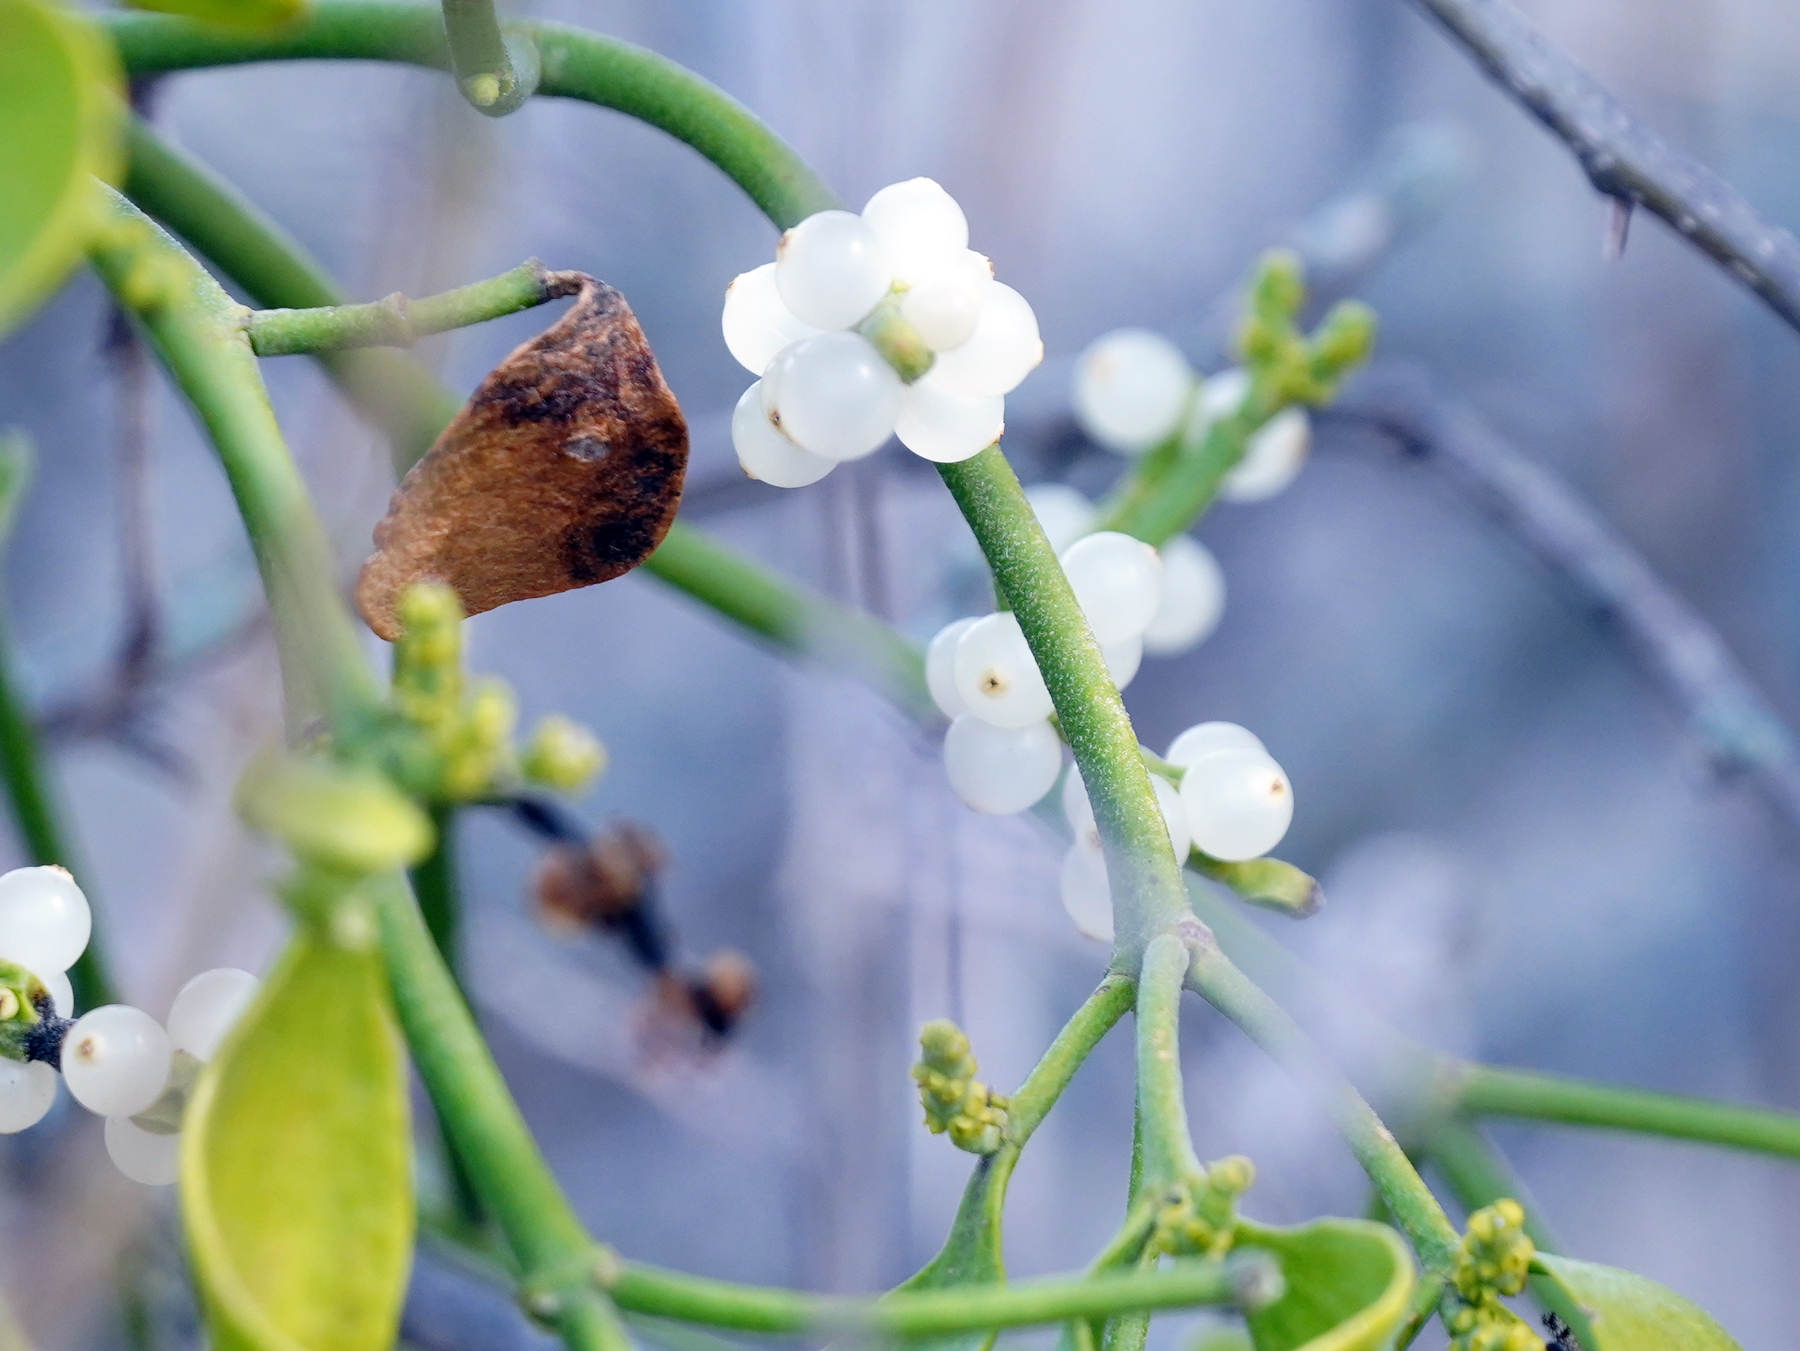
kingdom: Plantae
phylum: Tracheophyta
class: Magnoliopsida
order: Santalales
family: Viscaceae
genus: Phoradendron
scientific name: Phoradendron leucarpum
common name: Pacific mistletoe
